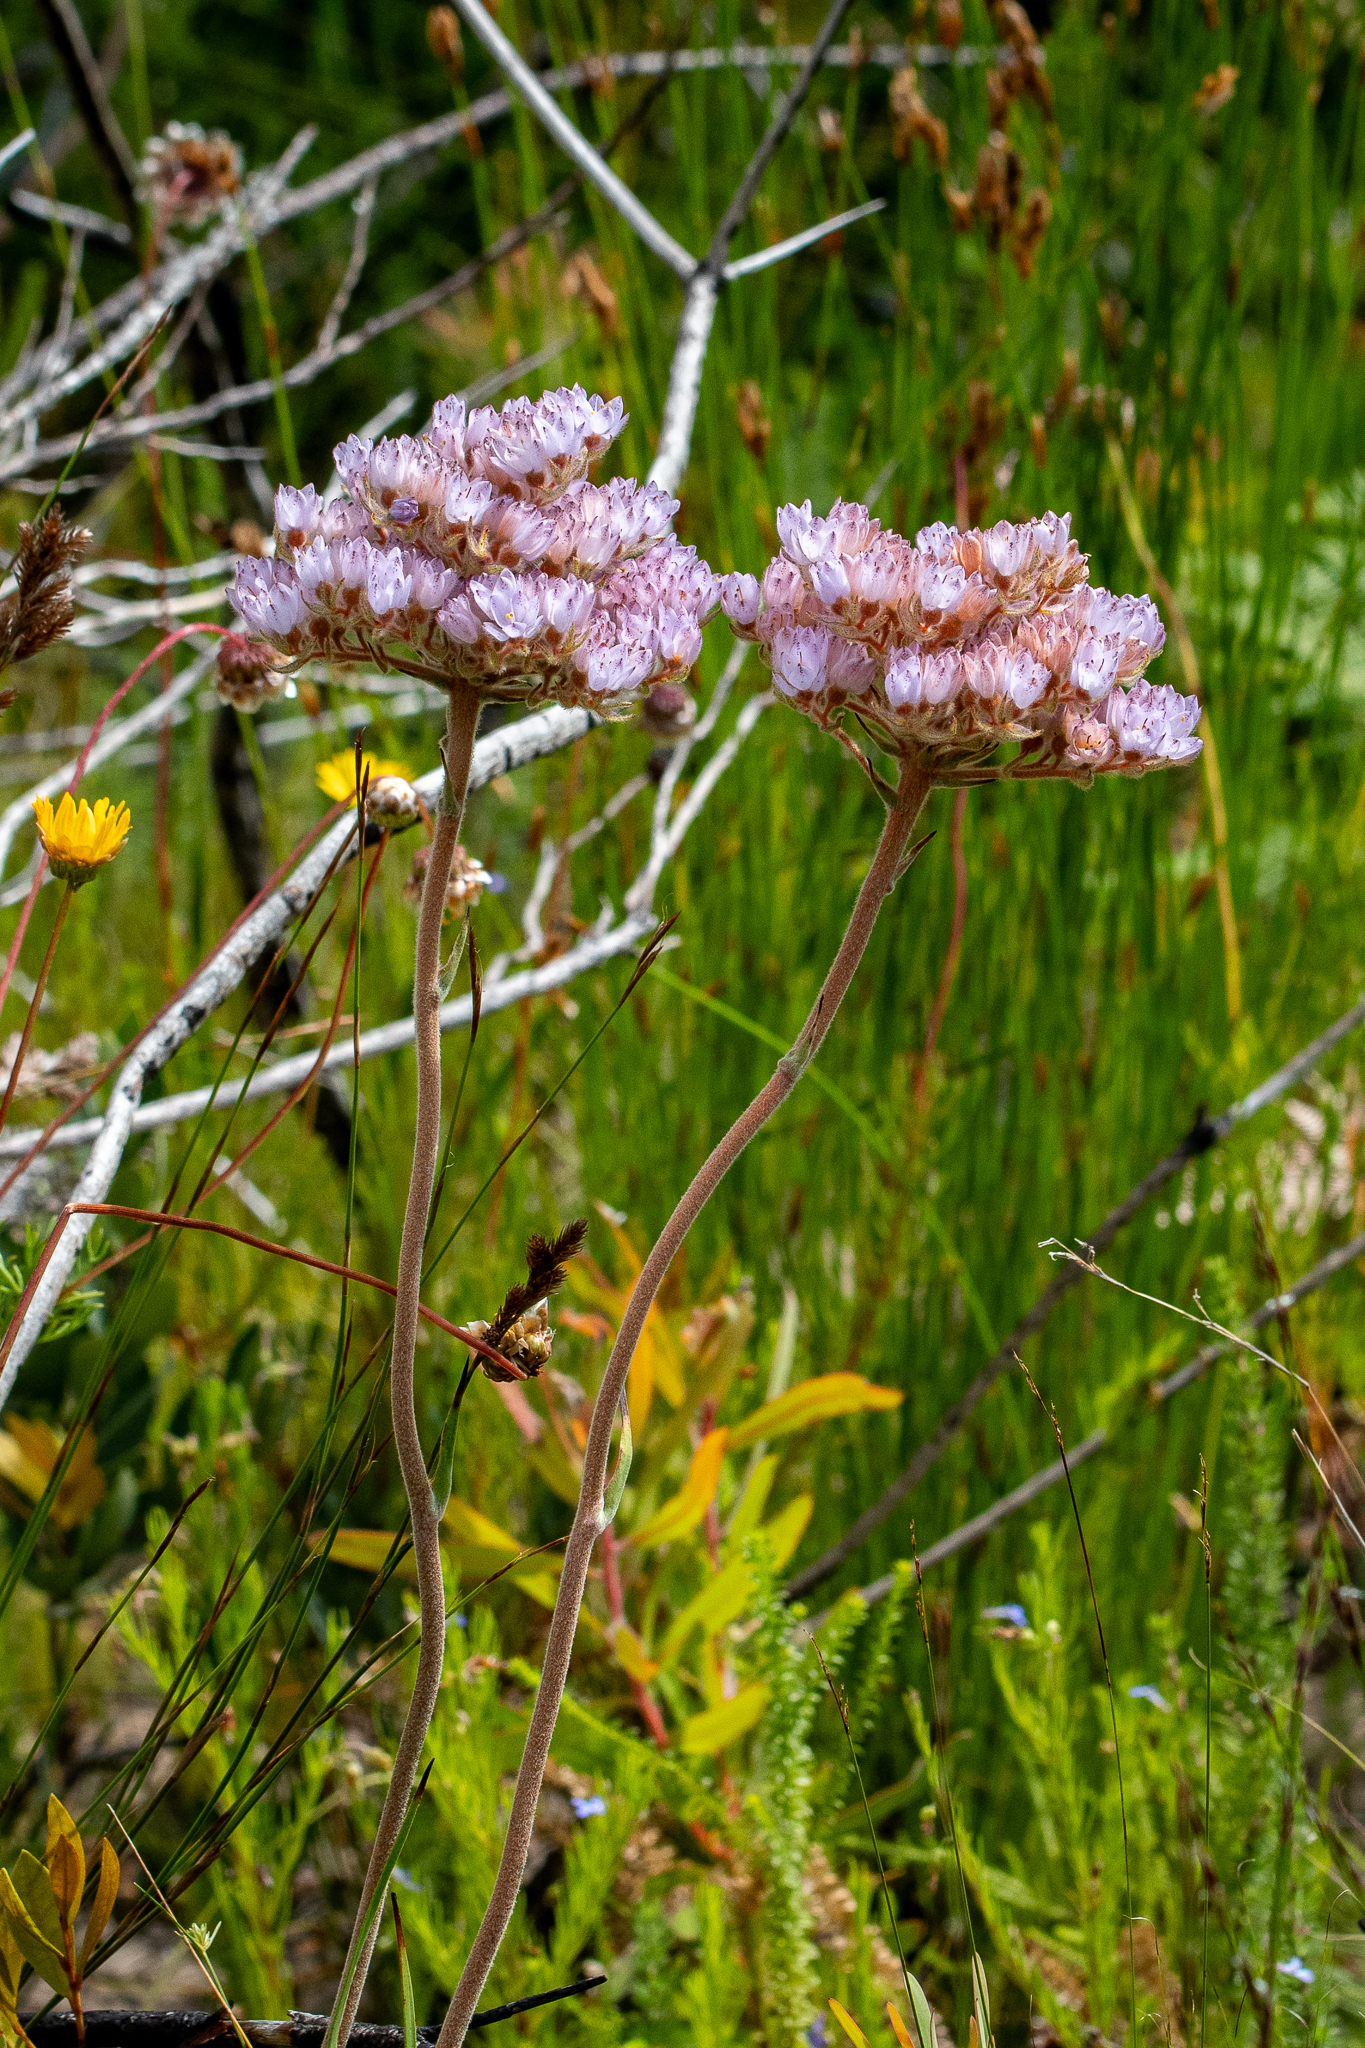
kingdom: Plantae
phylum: Tracheophyta
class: Liliopsida
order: Commelinales
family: Haemodoraceae
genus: Dilatris
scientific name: Dilatris pillansii
